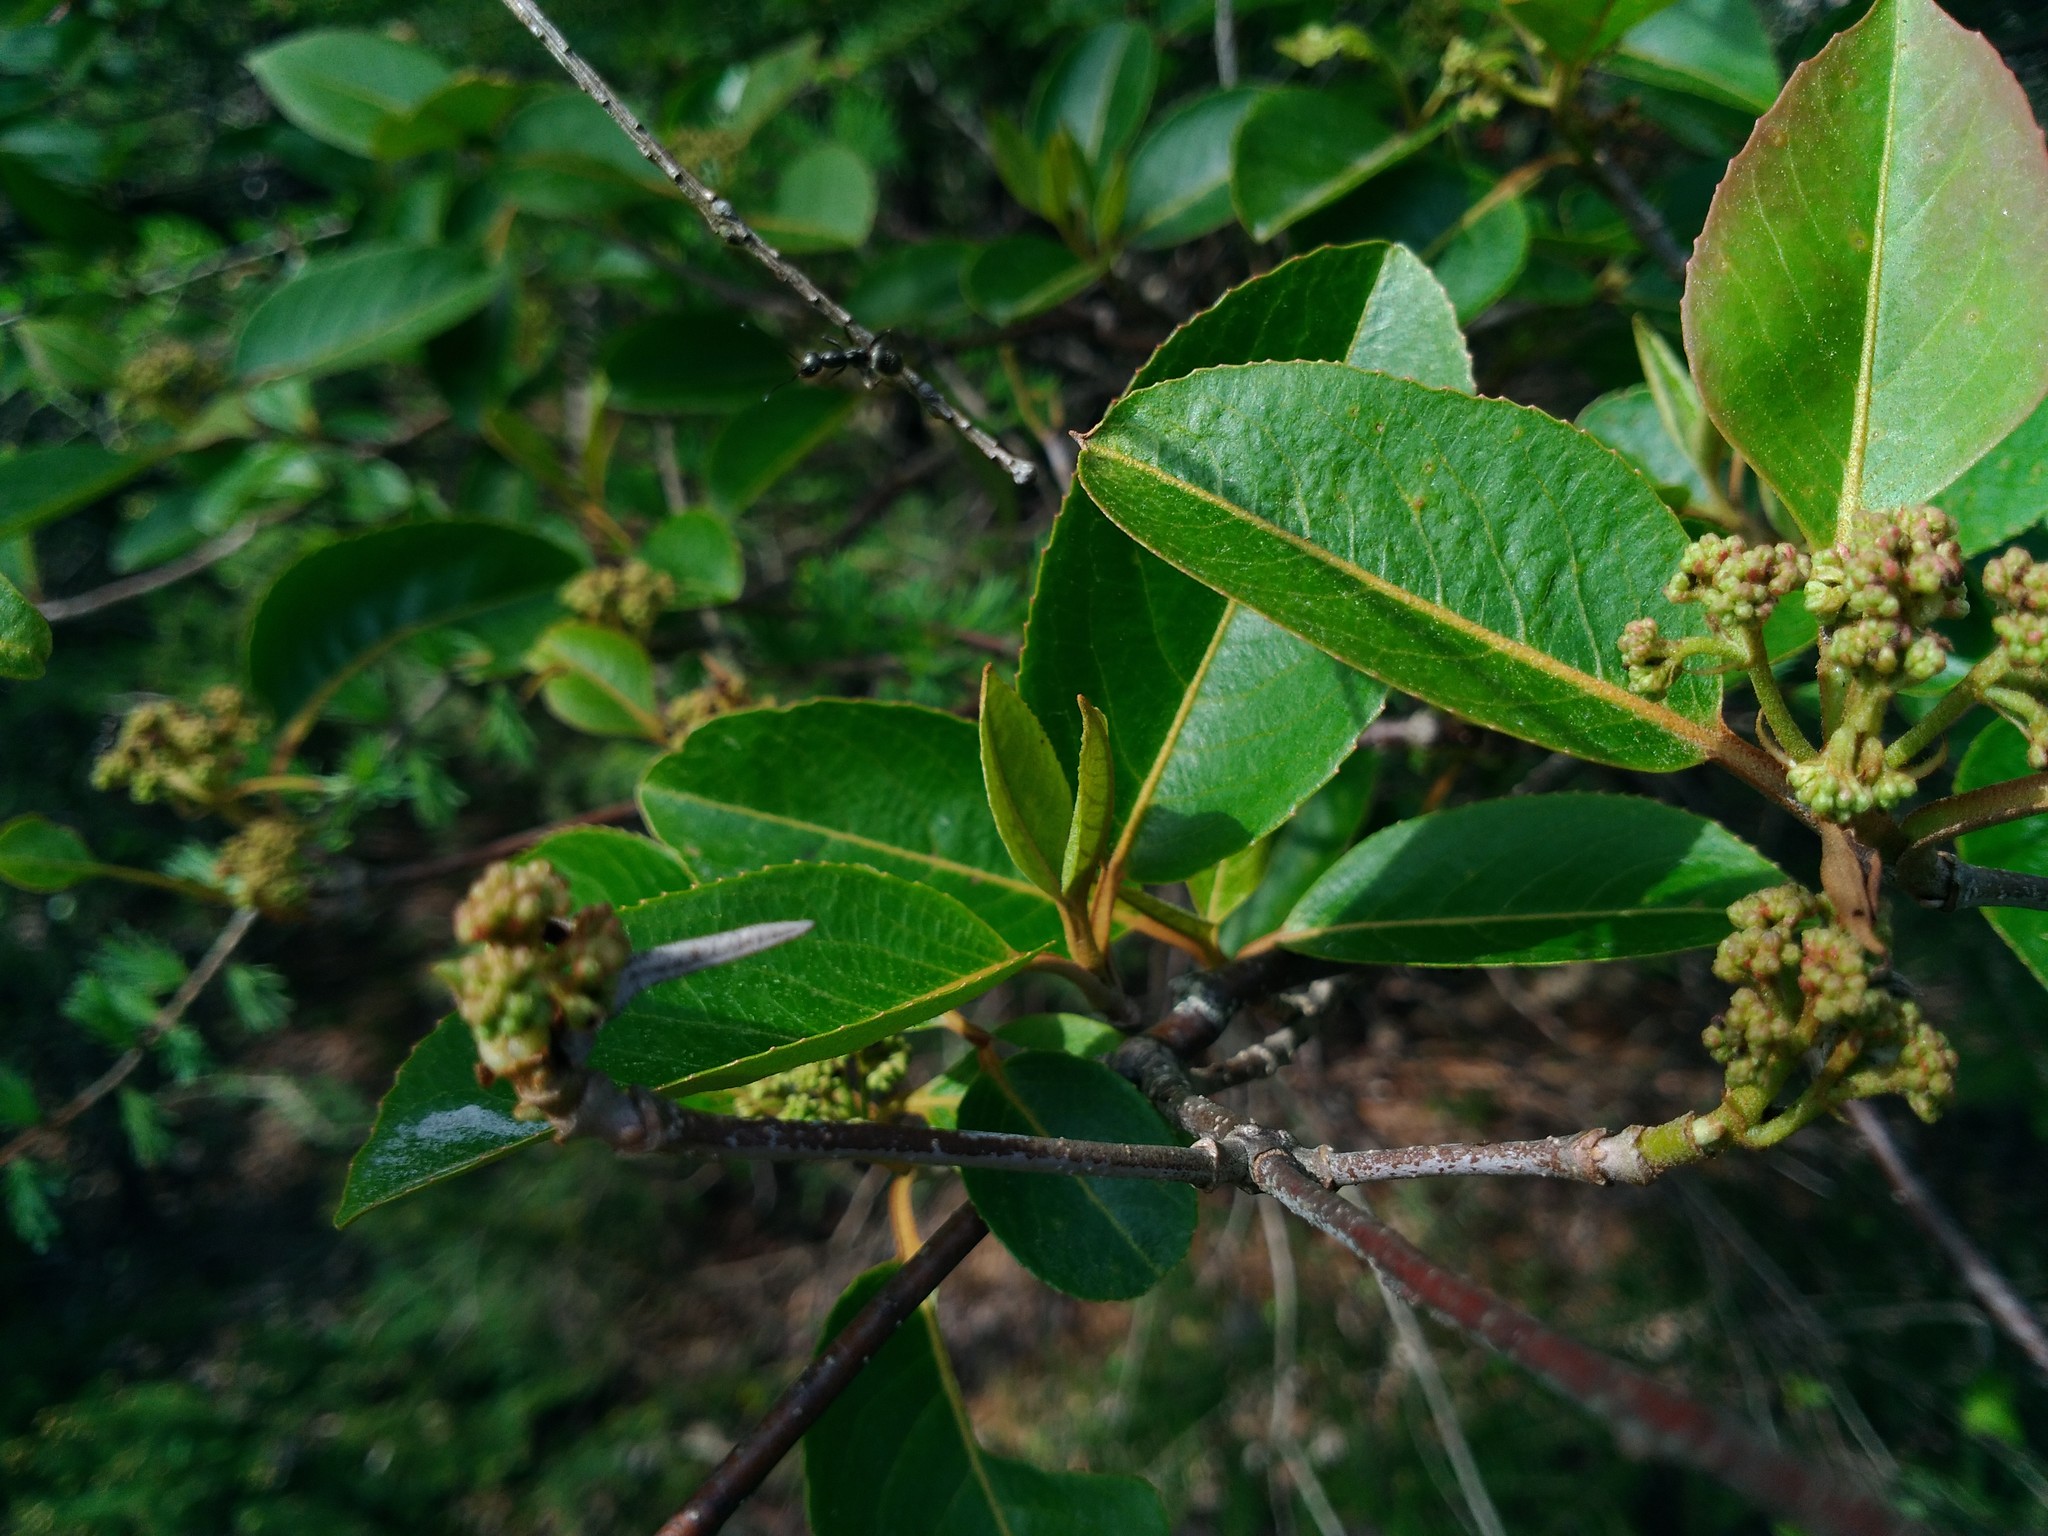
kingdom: Plantae
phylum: Tracheophyta
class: Magnoliopsida
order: Dipsacales
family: Viburnaceae
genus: Viburnum
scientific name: Viburnum cassinoides
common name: Swamp haw
